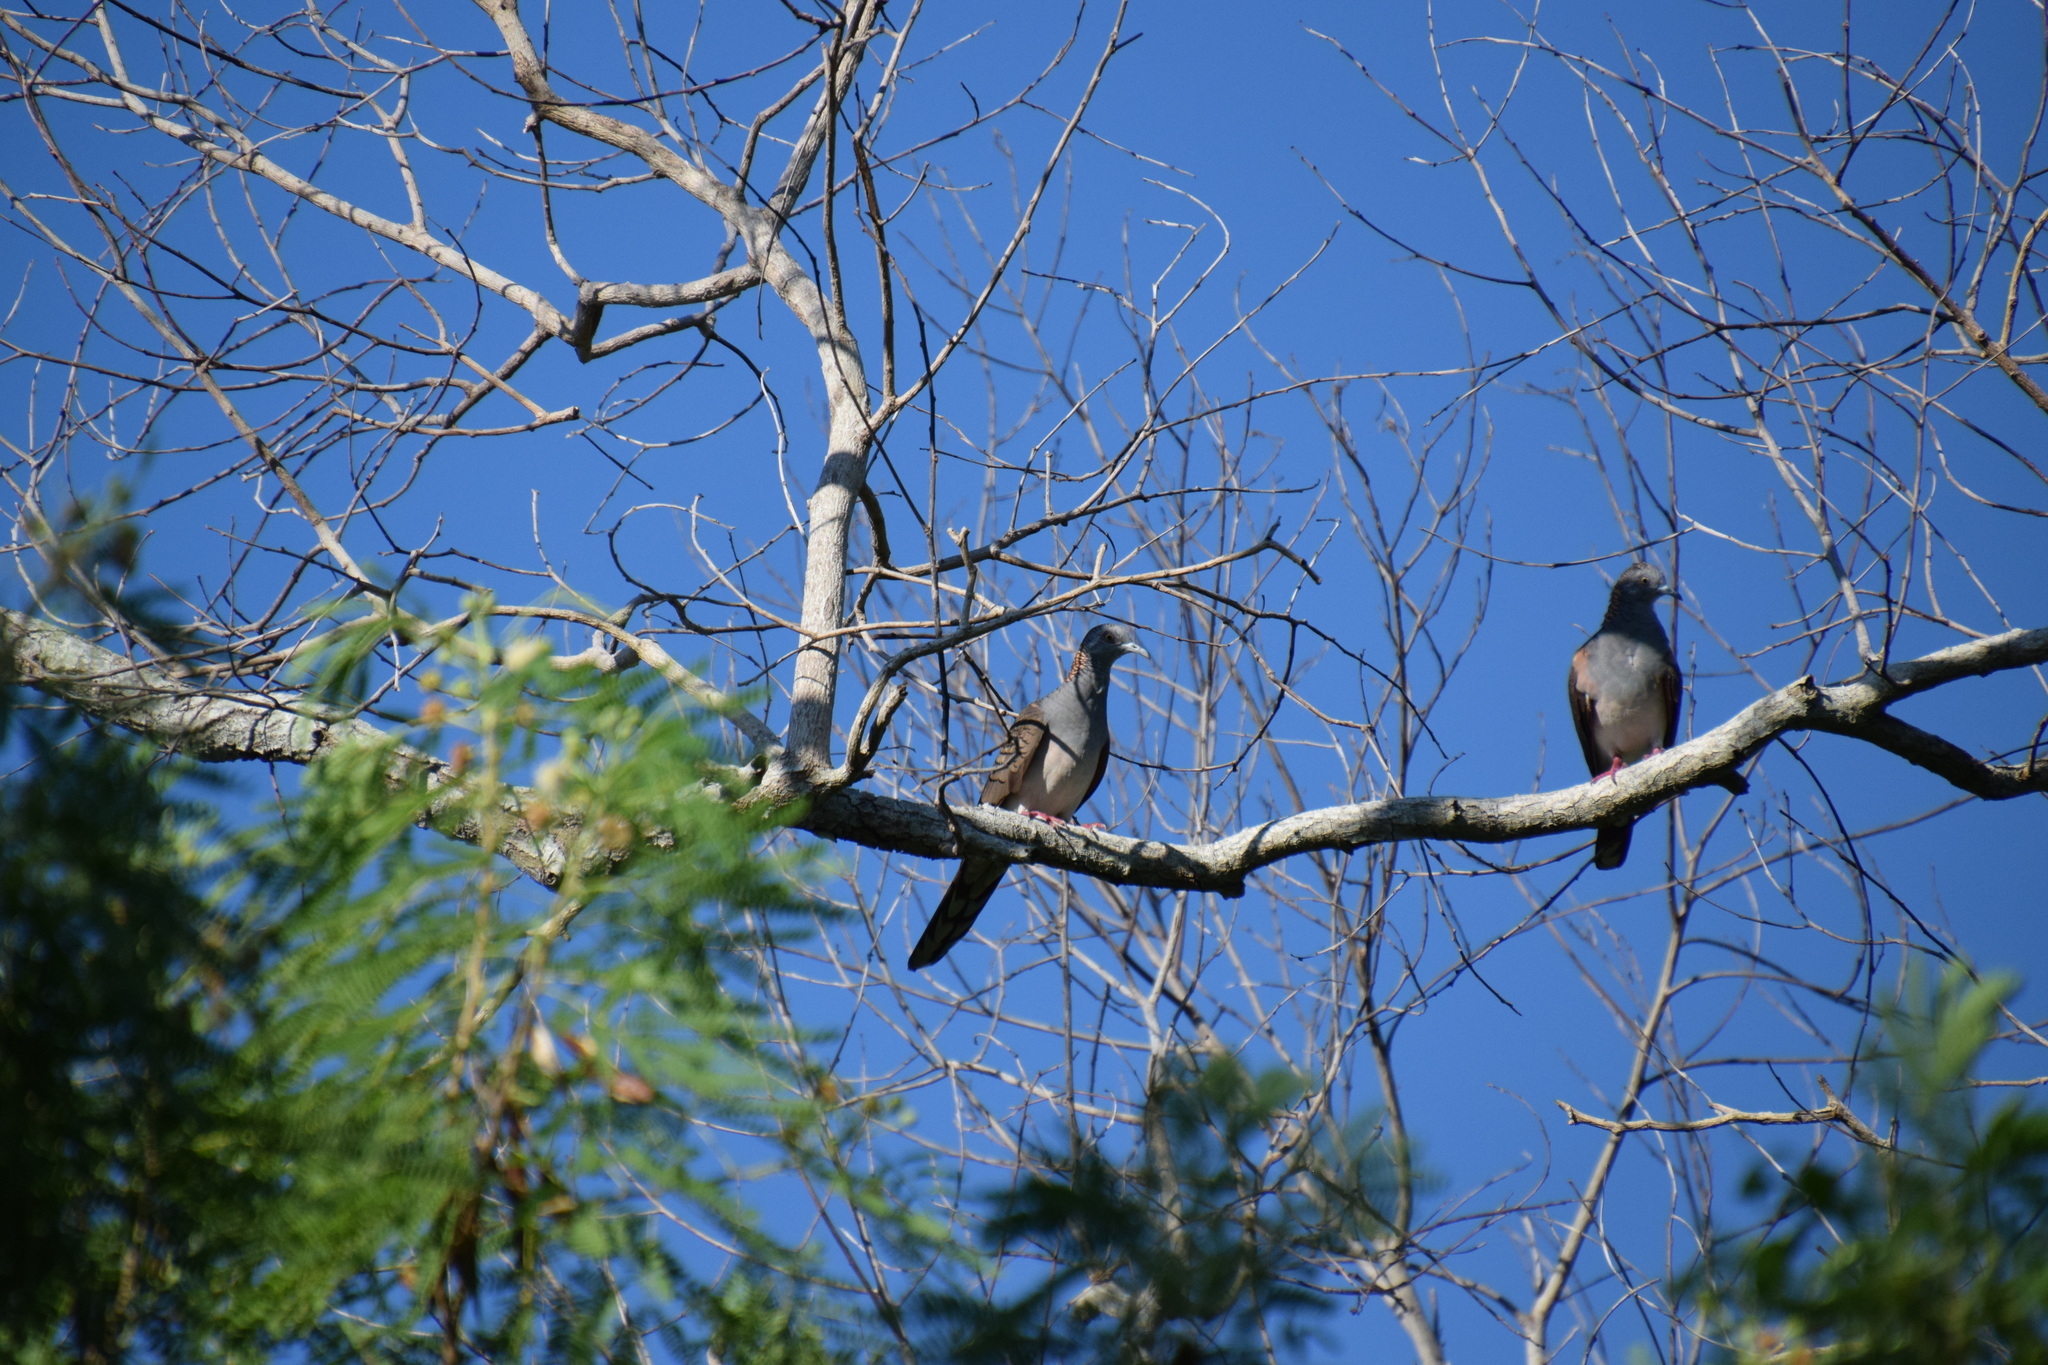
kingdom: Animalia
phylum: Chordata
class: Aves
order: Columbiformes
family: Columbidae
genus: Geopelia
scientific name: Geopelia humeralis
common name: Bar-shouldered dove
